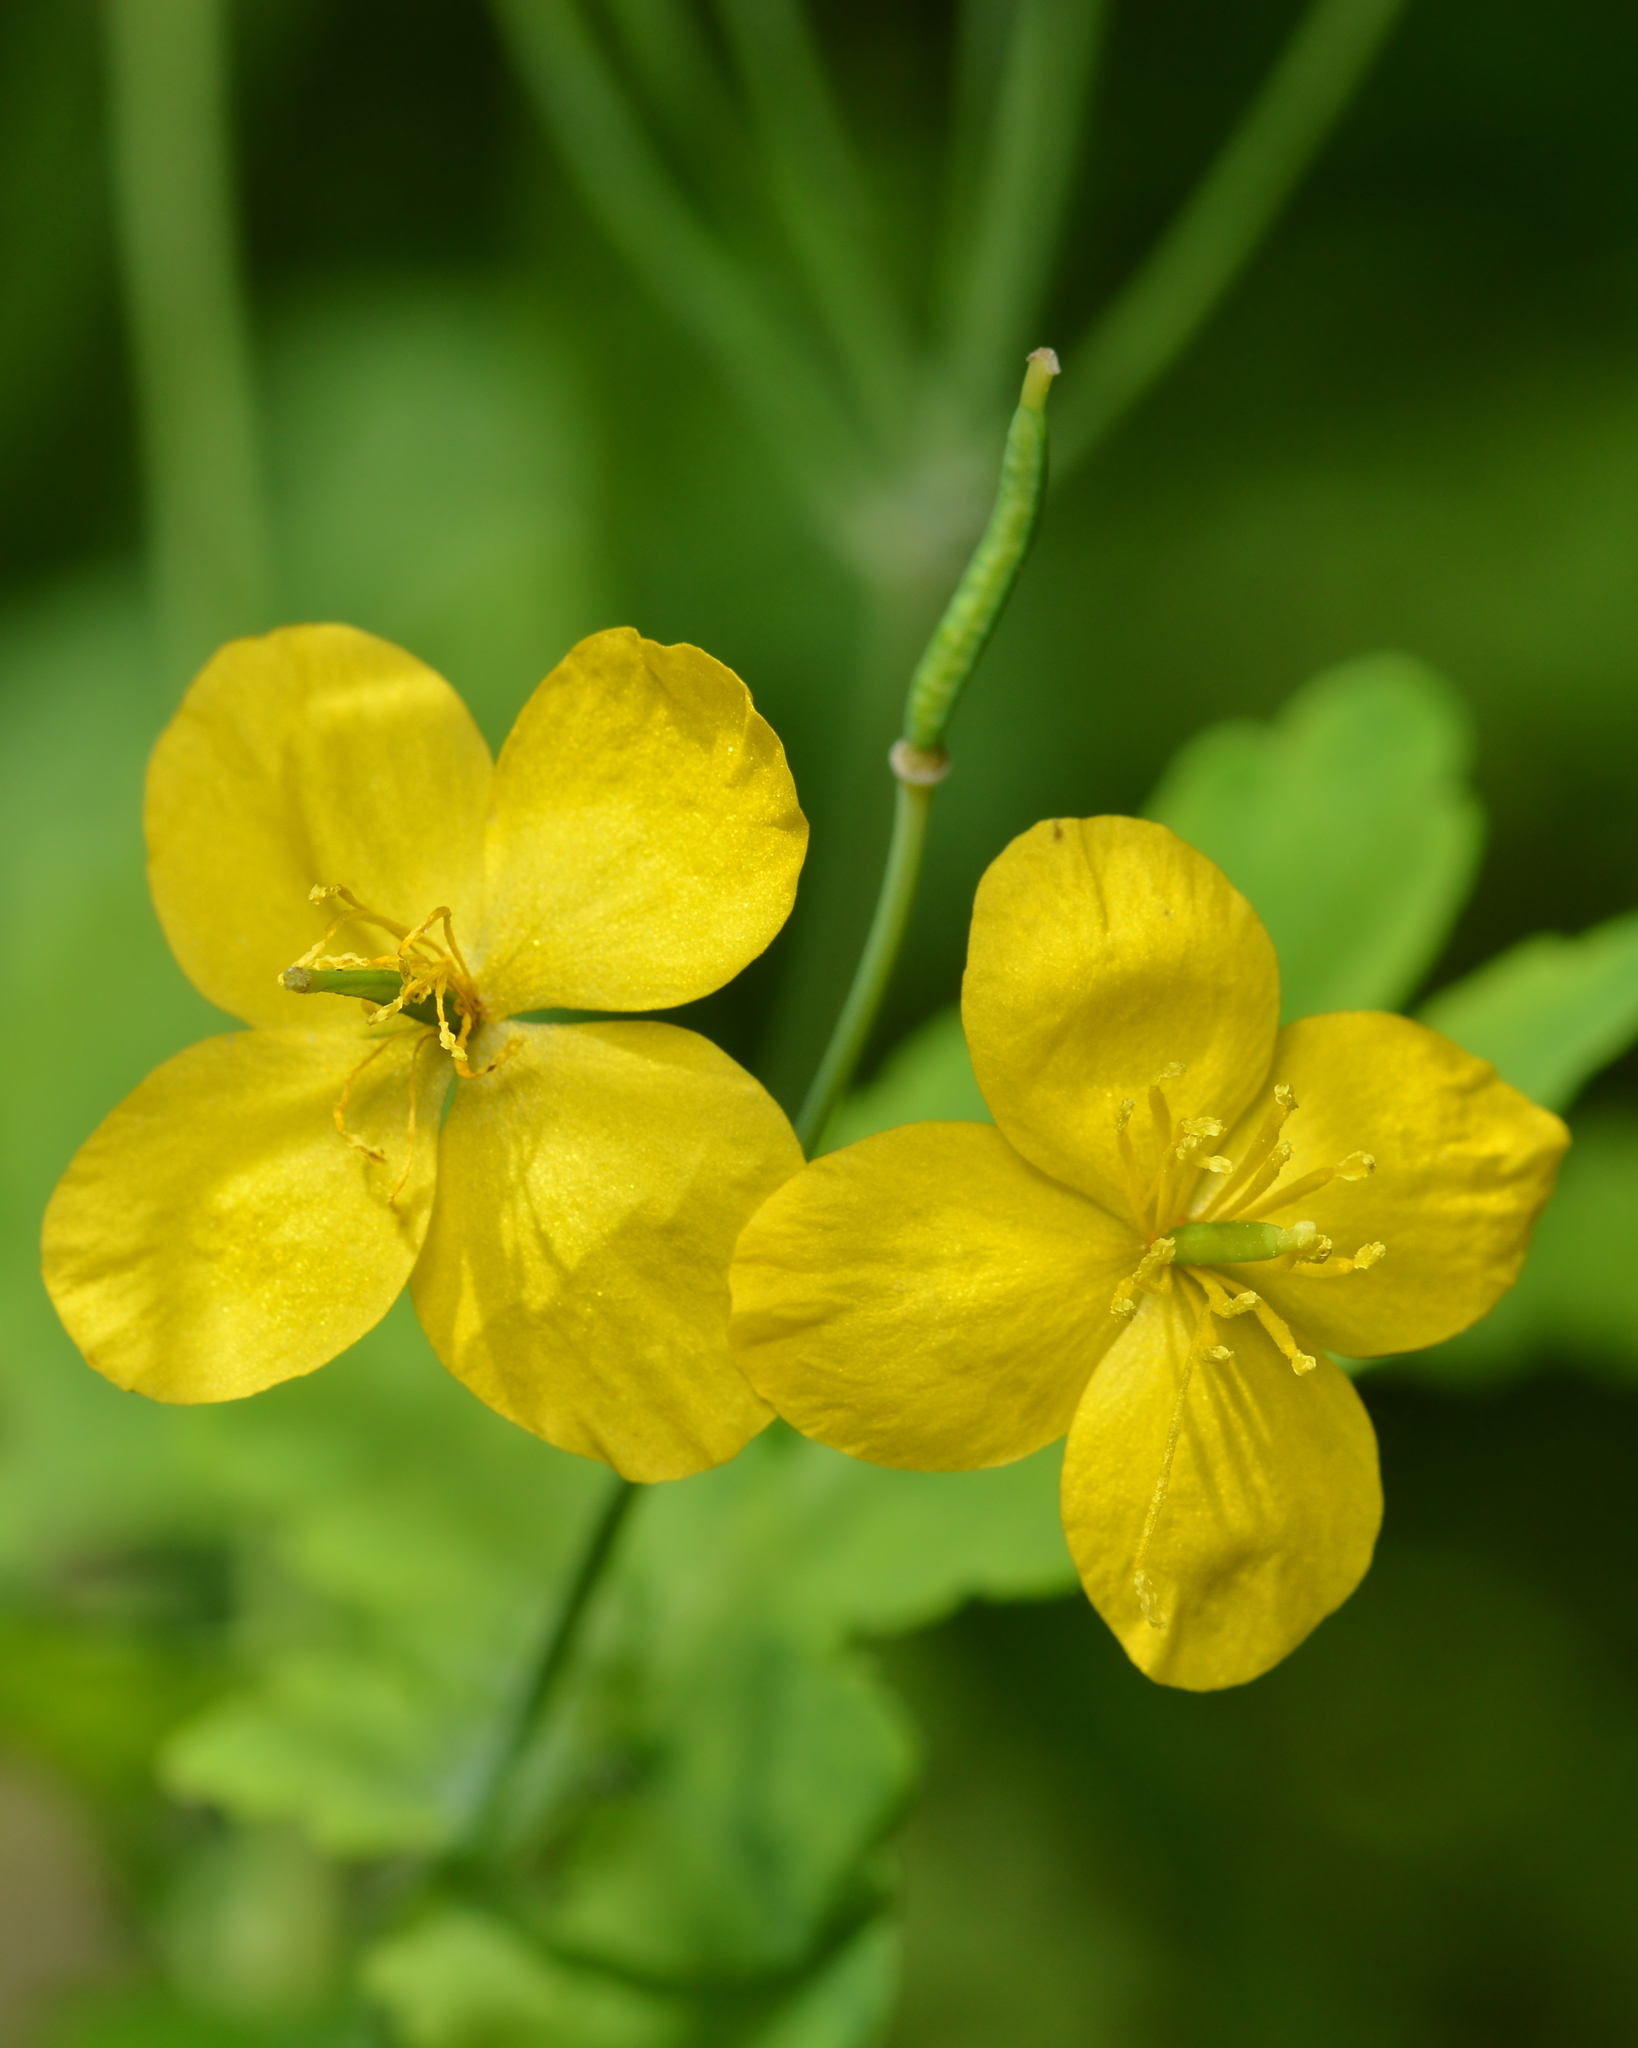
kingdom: Plantae
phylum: Tracheophyta
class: Magnoliopsida
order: Ranunculales
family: Papaveraceae
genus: Chelidonium
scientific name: Chelidonium majus
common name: Greater celandine
